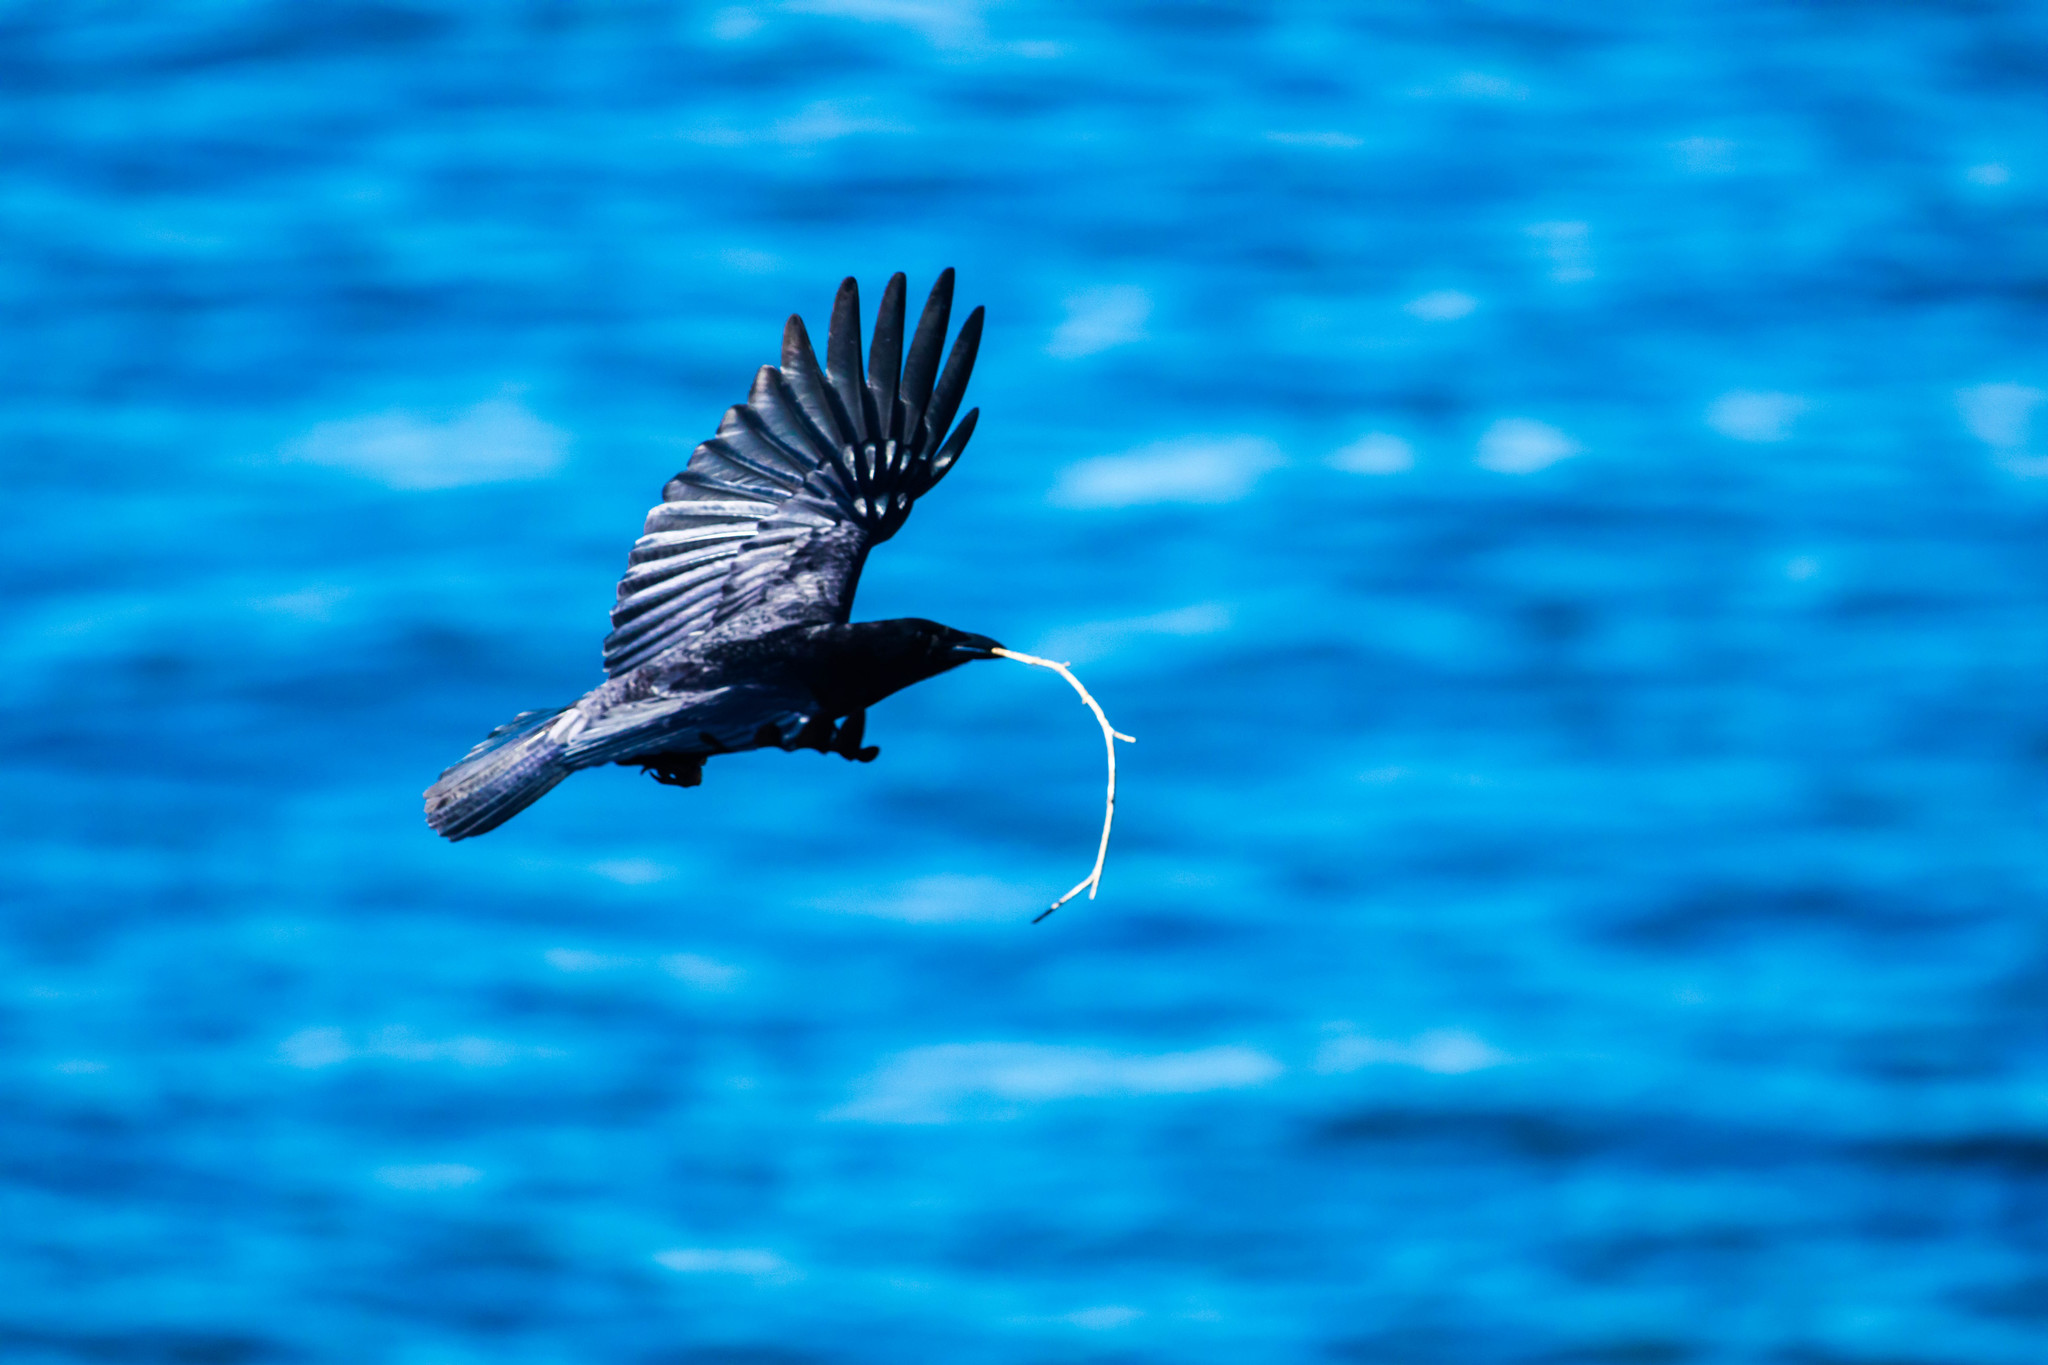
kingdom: Animalia
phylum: Chordata
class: Aves
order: Passeriformes
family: Corvidae
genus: Corvus
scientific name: Corvus brachyrhynchos
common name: American crow
